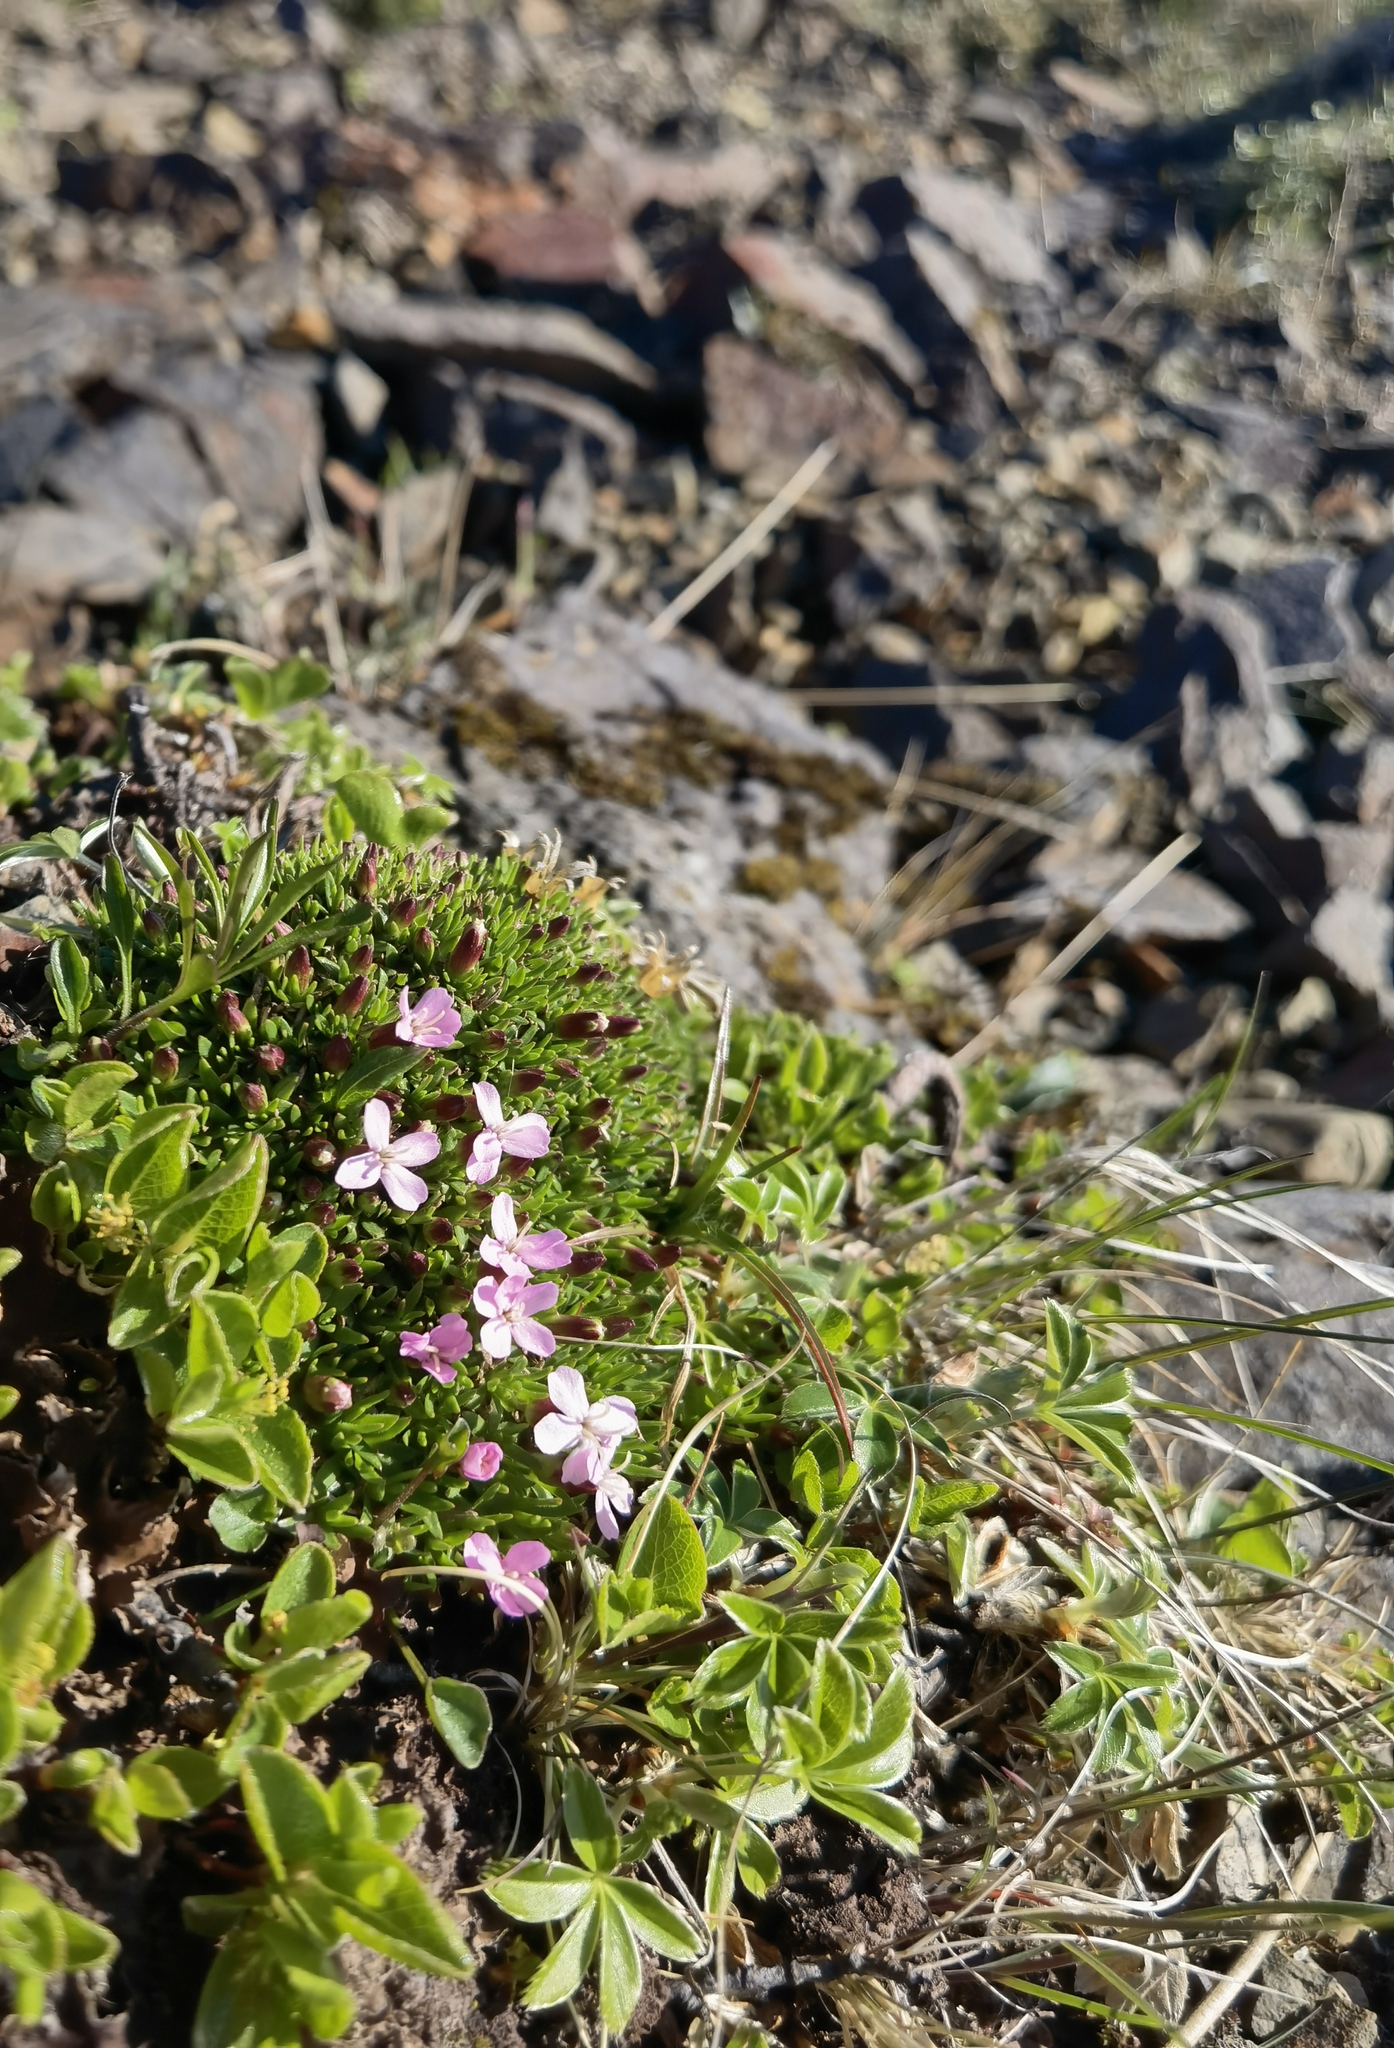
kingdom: Plantae
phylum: Tracheophyta
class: Magnoliopsida
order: Caryophyllales
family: Caryophyllaceae
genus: Silene
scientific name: Silene acaulis
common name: Moss campion
